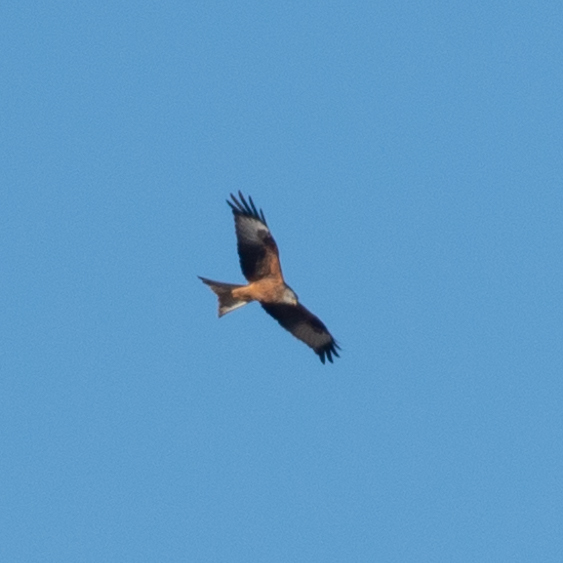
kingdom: Animalia
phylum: Chordata
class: Aves
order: Accipitriformes
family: Accipitridae
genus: Milvus
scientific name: Milvus milvus
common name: Red kite
